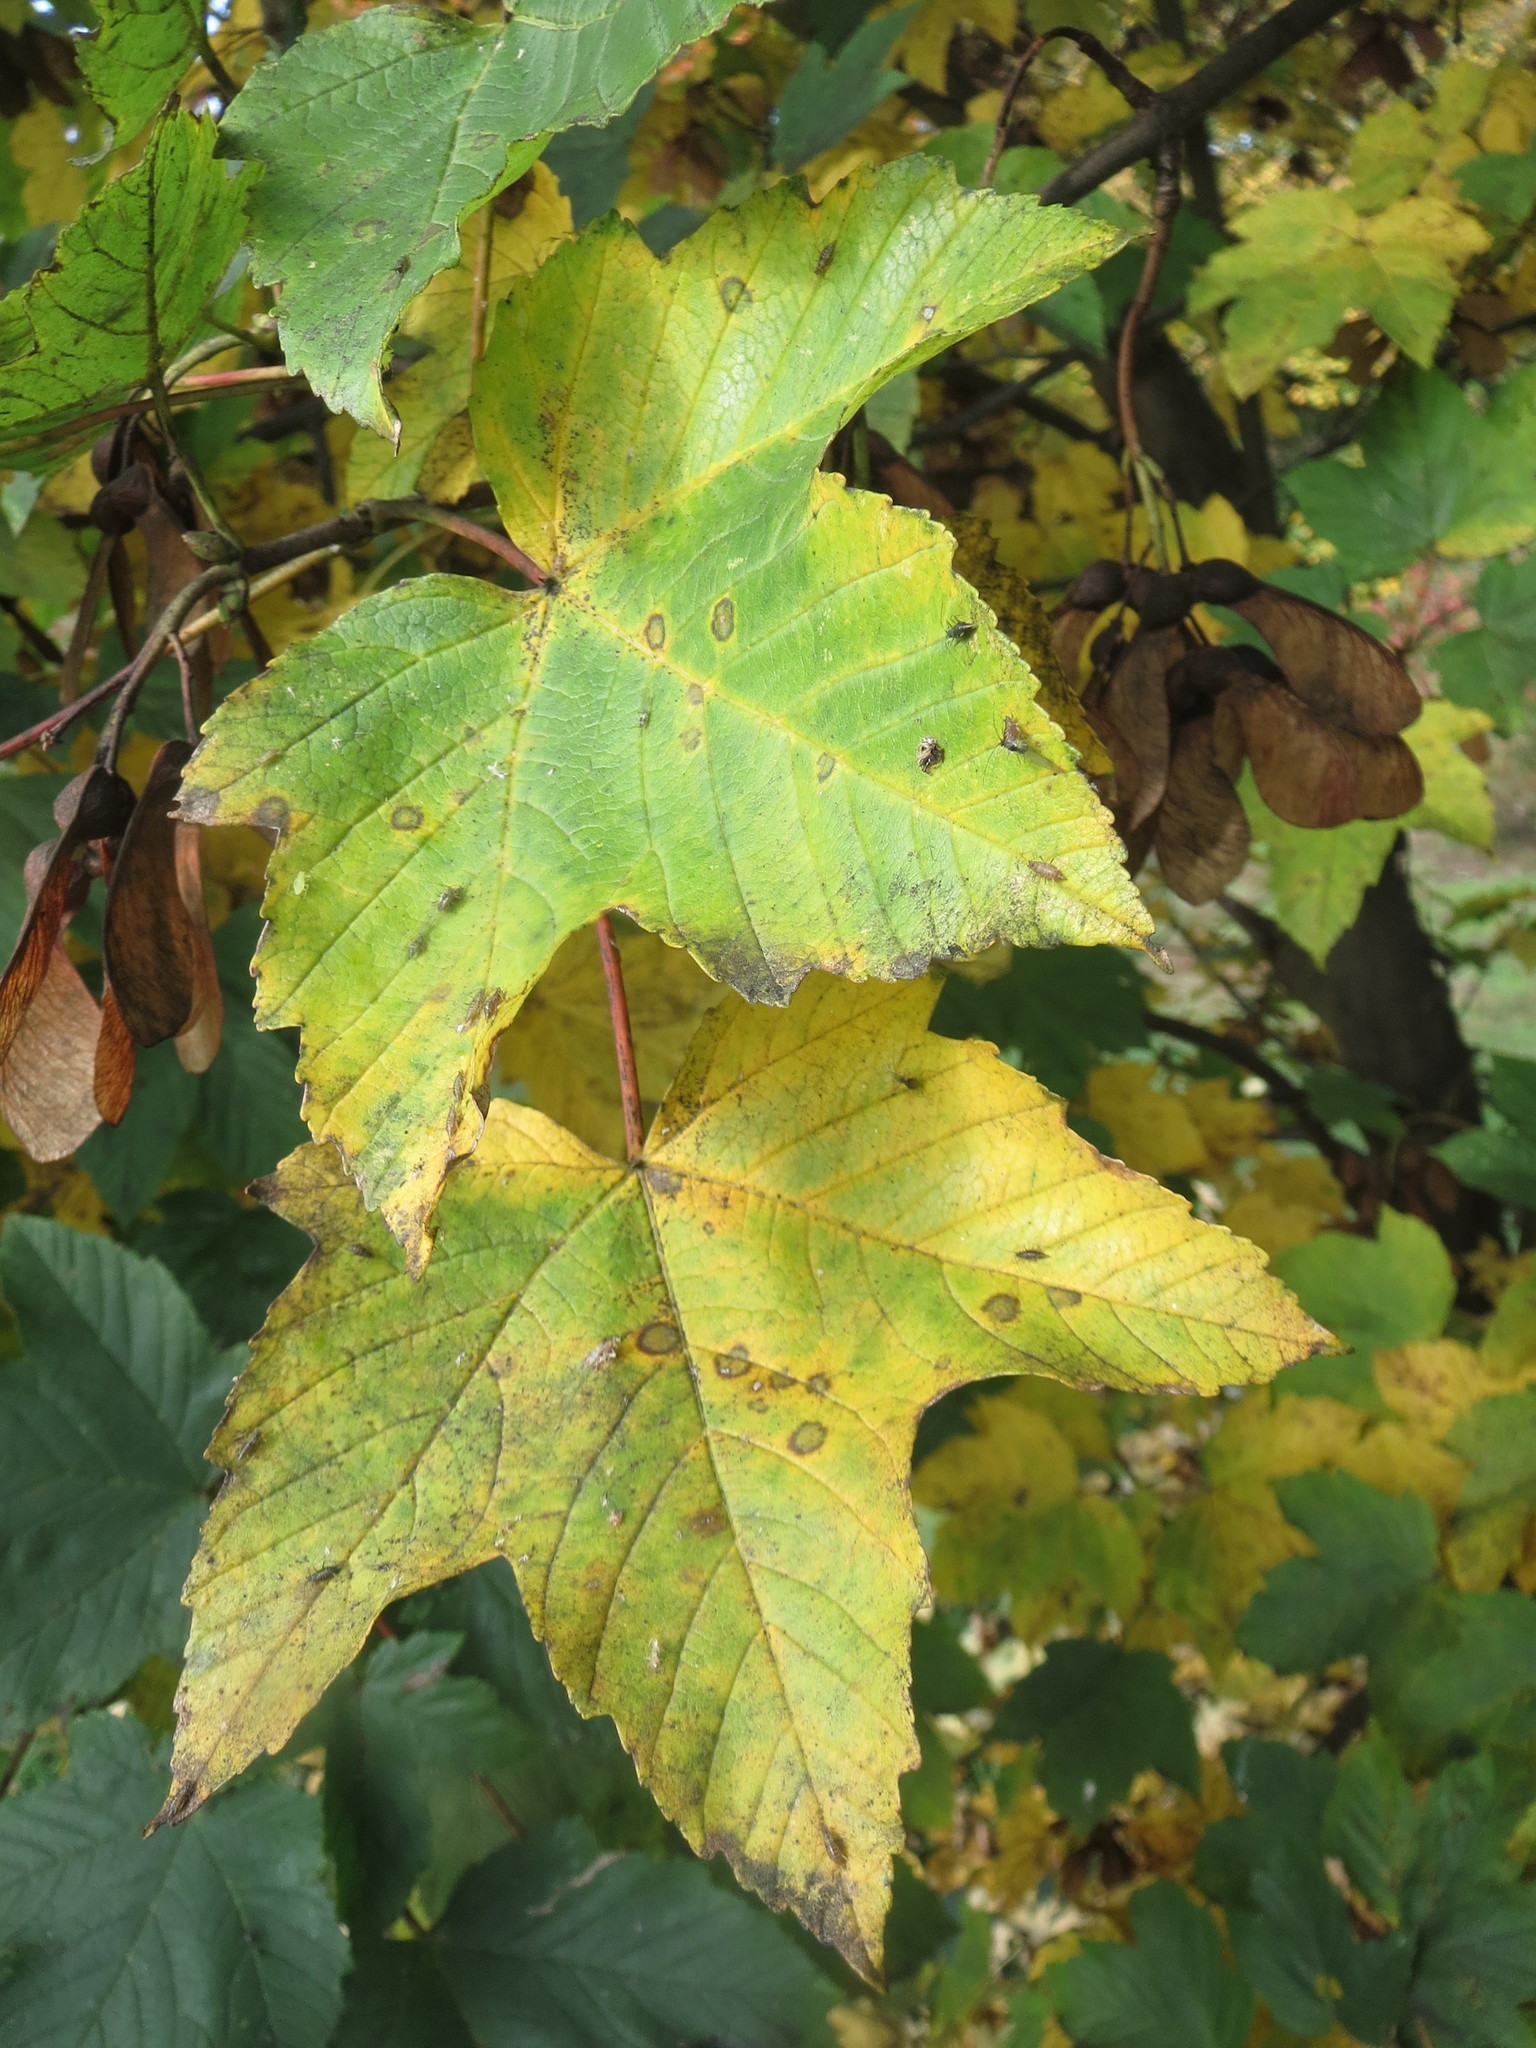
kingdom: Plantae
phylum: Tracheophyta
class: Magnoliopsida
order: Sapindales
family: Sapindaceae
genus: Acer
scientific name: Acer pseudoplatanus
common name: Sycamore
